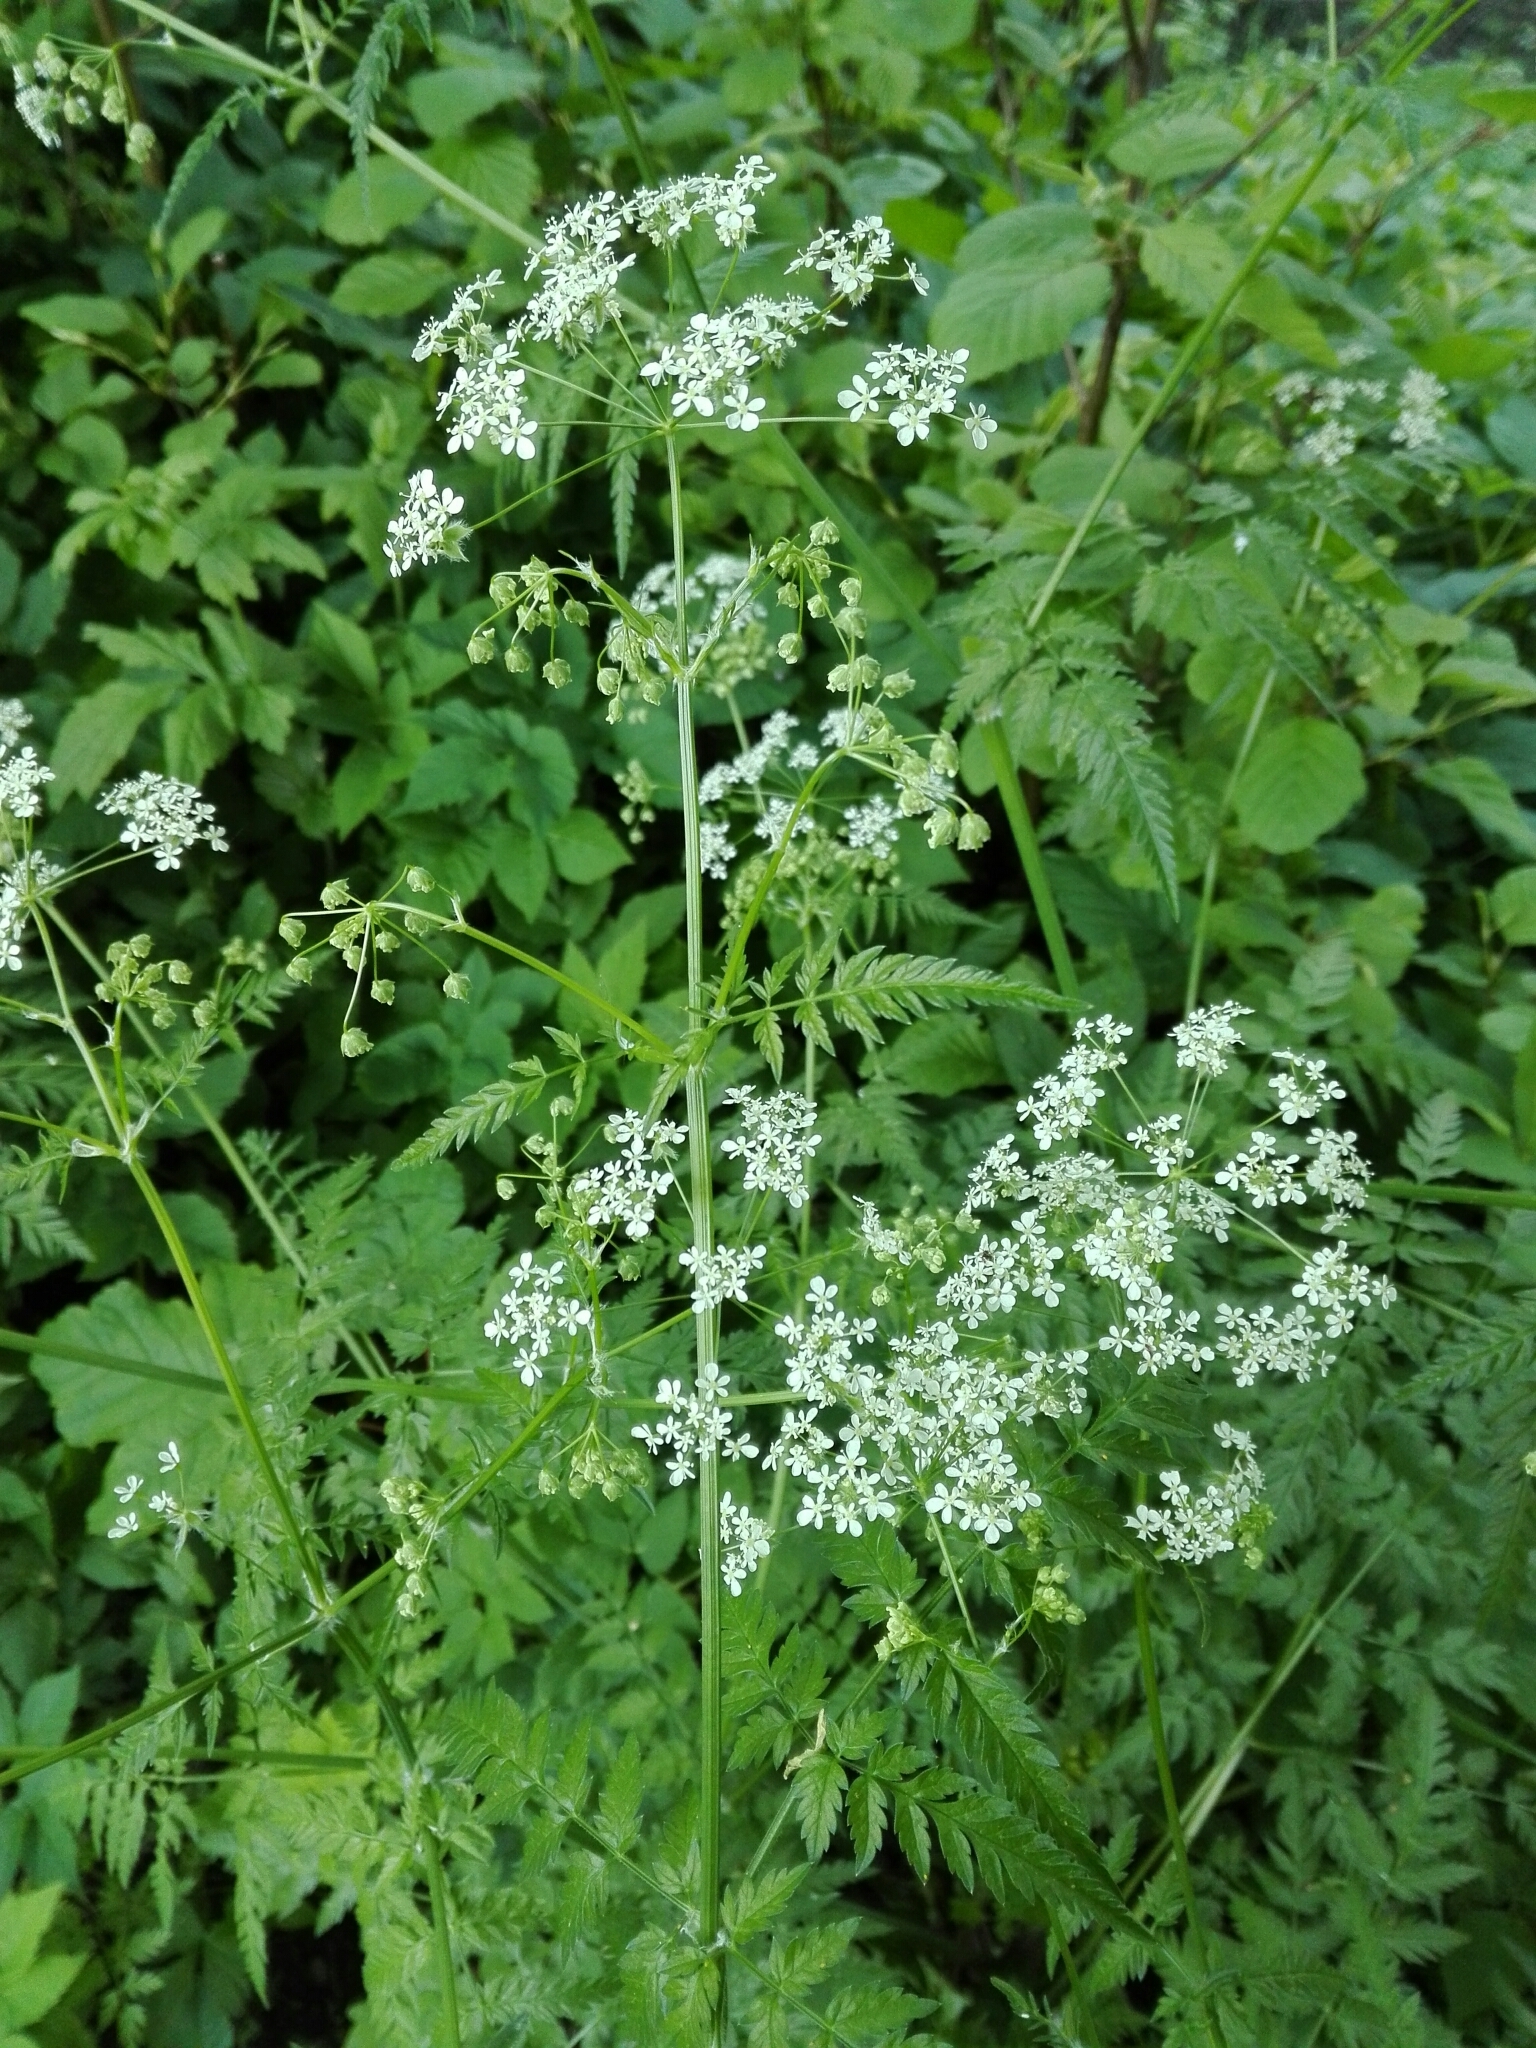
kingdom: Plantae
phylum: Tracheophyta
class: Magnoliopsida
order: Apiales
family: Apiaceae
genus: Anthriscus
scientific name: Anthriscus sylvestris
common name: Cow parsley
